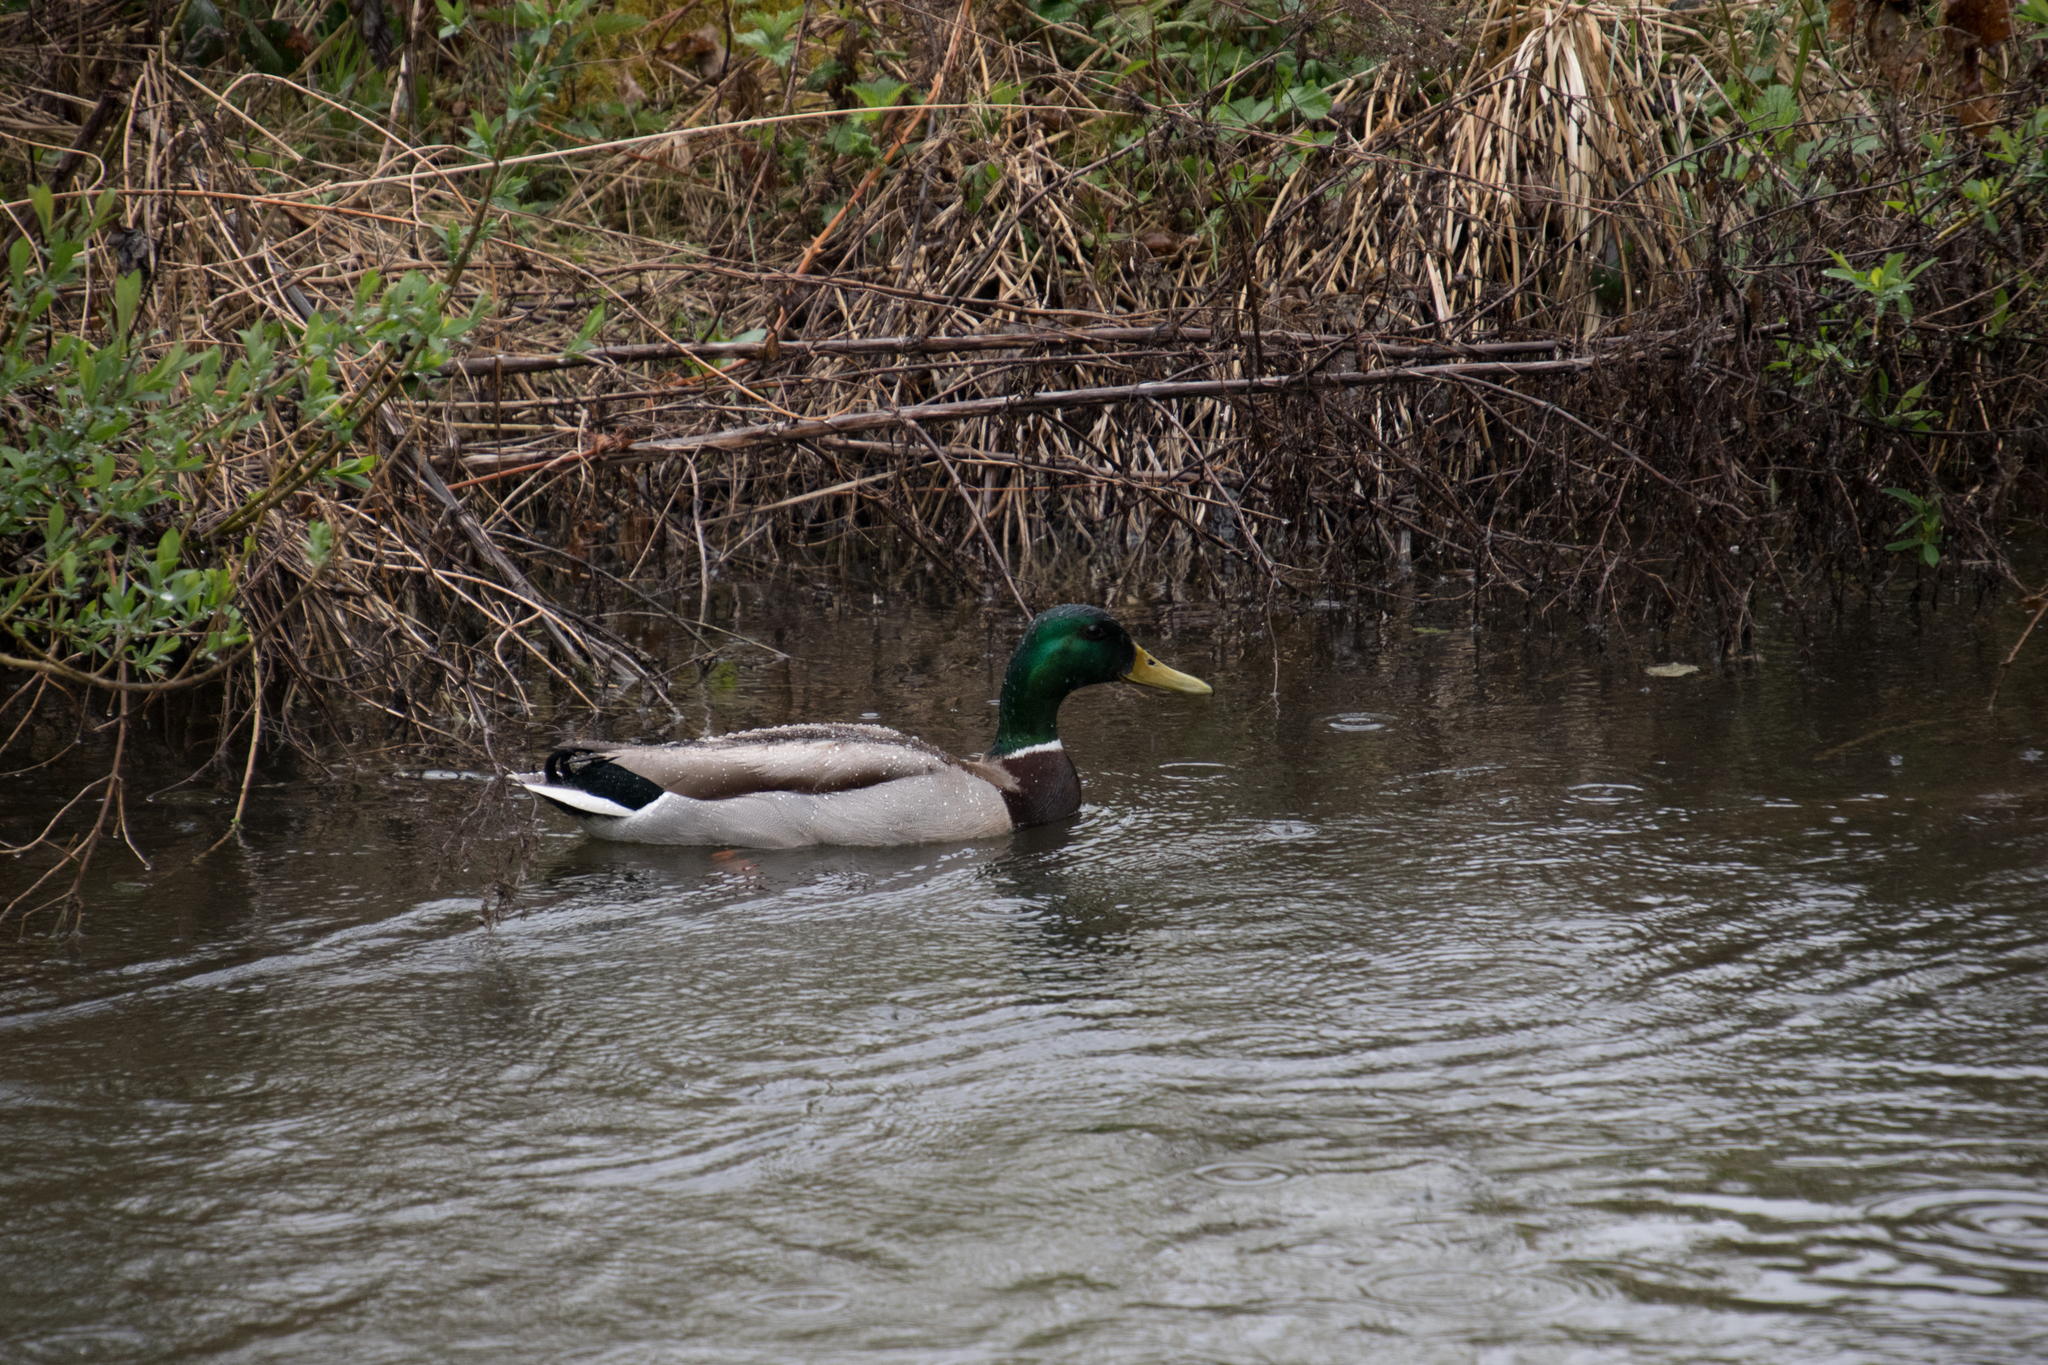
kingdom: Animalia
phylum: Chordata
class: Aves
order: Anseriformes
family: Anatidae
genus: Anas
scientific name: Anas platyrhynchos
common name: Mallard
